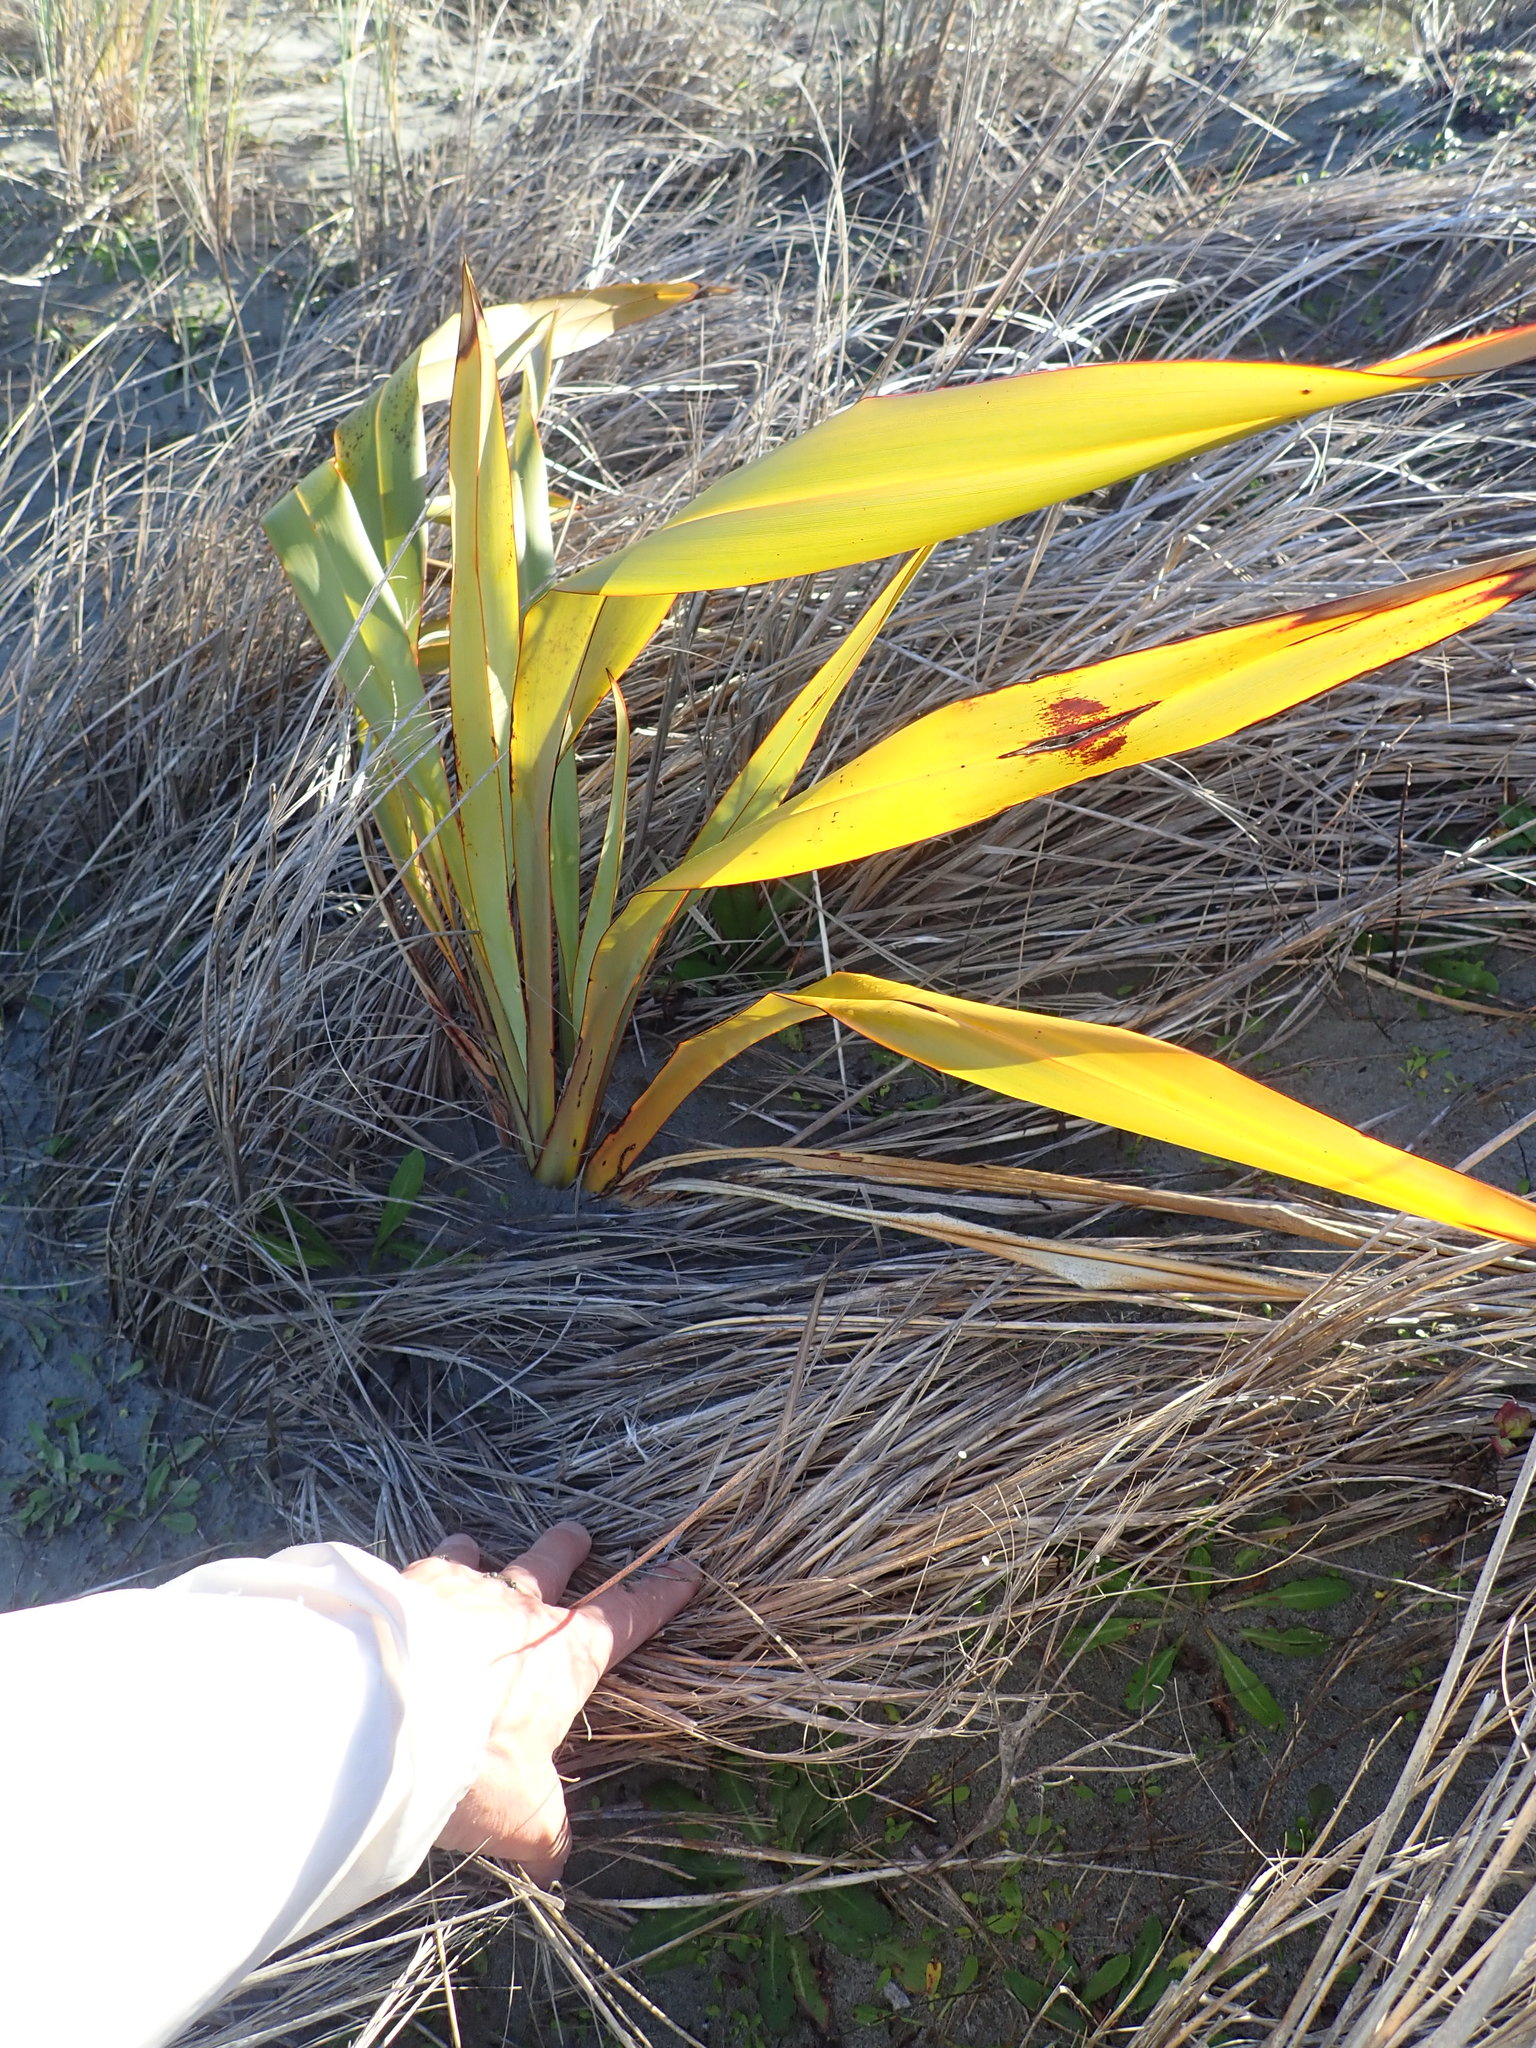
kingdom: Plantae
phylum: Tracheophyta
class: Liliopsida
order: Asparagales
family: Asphodelaceae
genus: Phormium
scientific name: Phormium tenax
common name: New zealand flax
